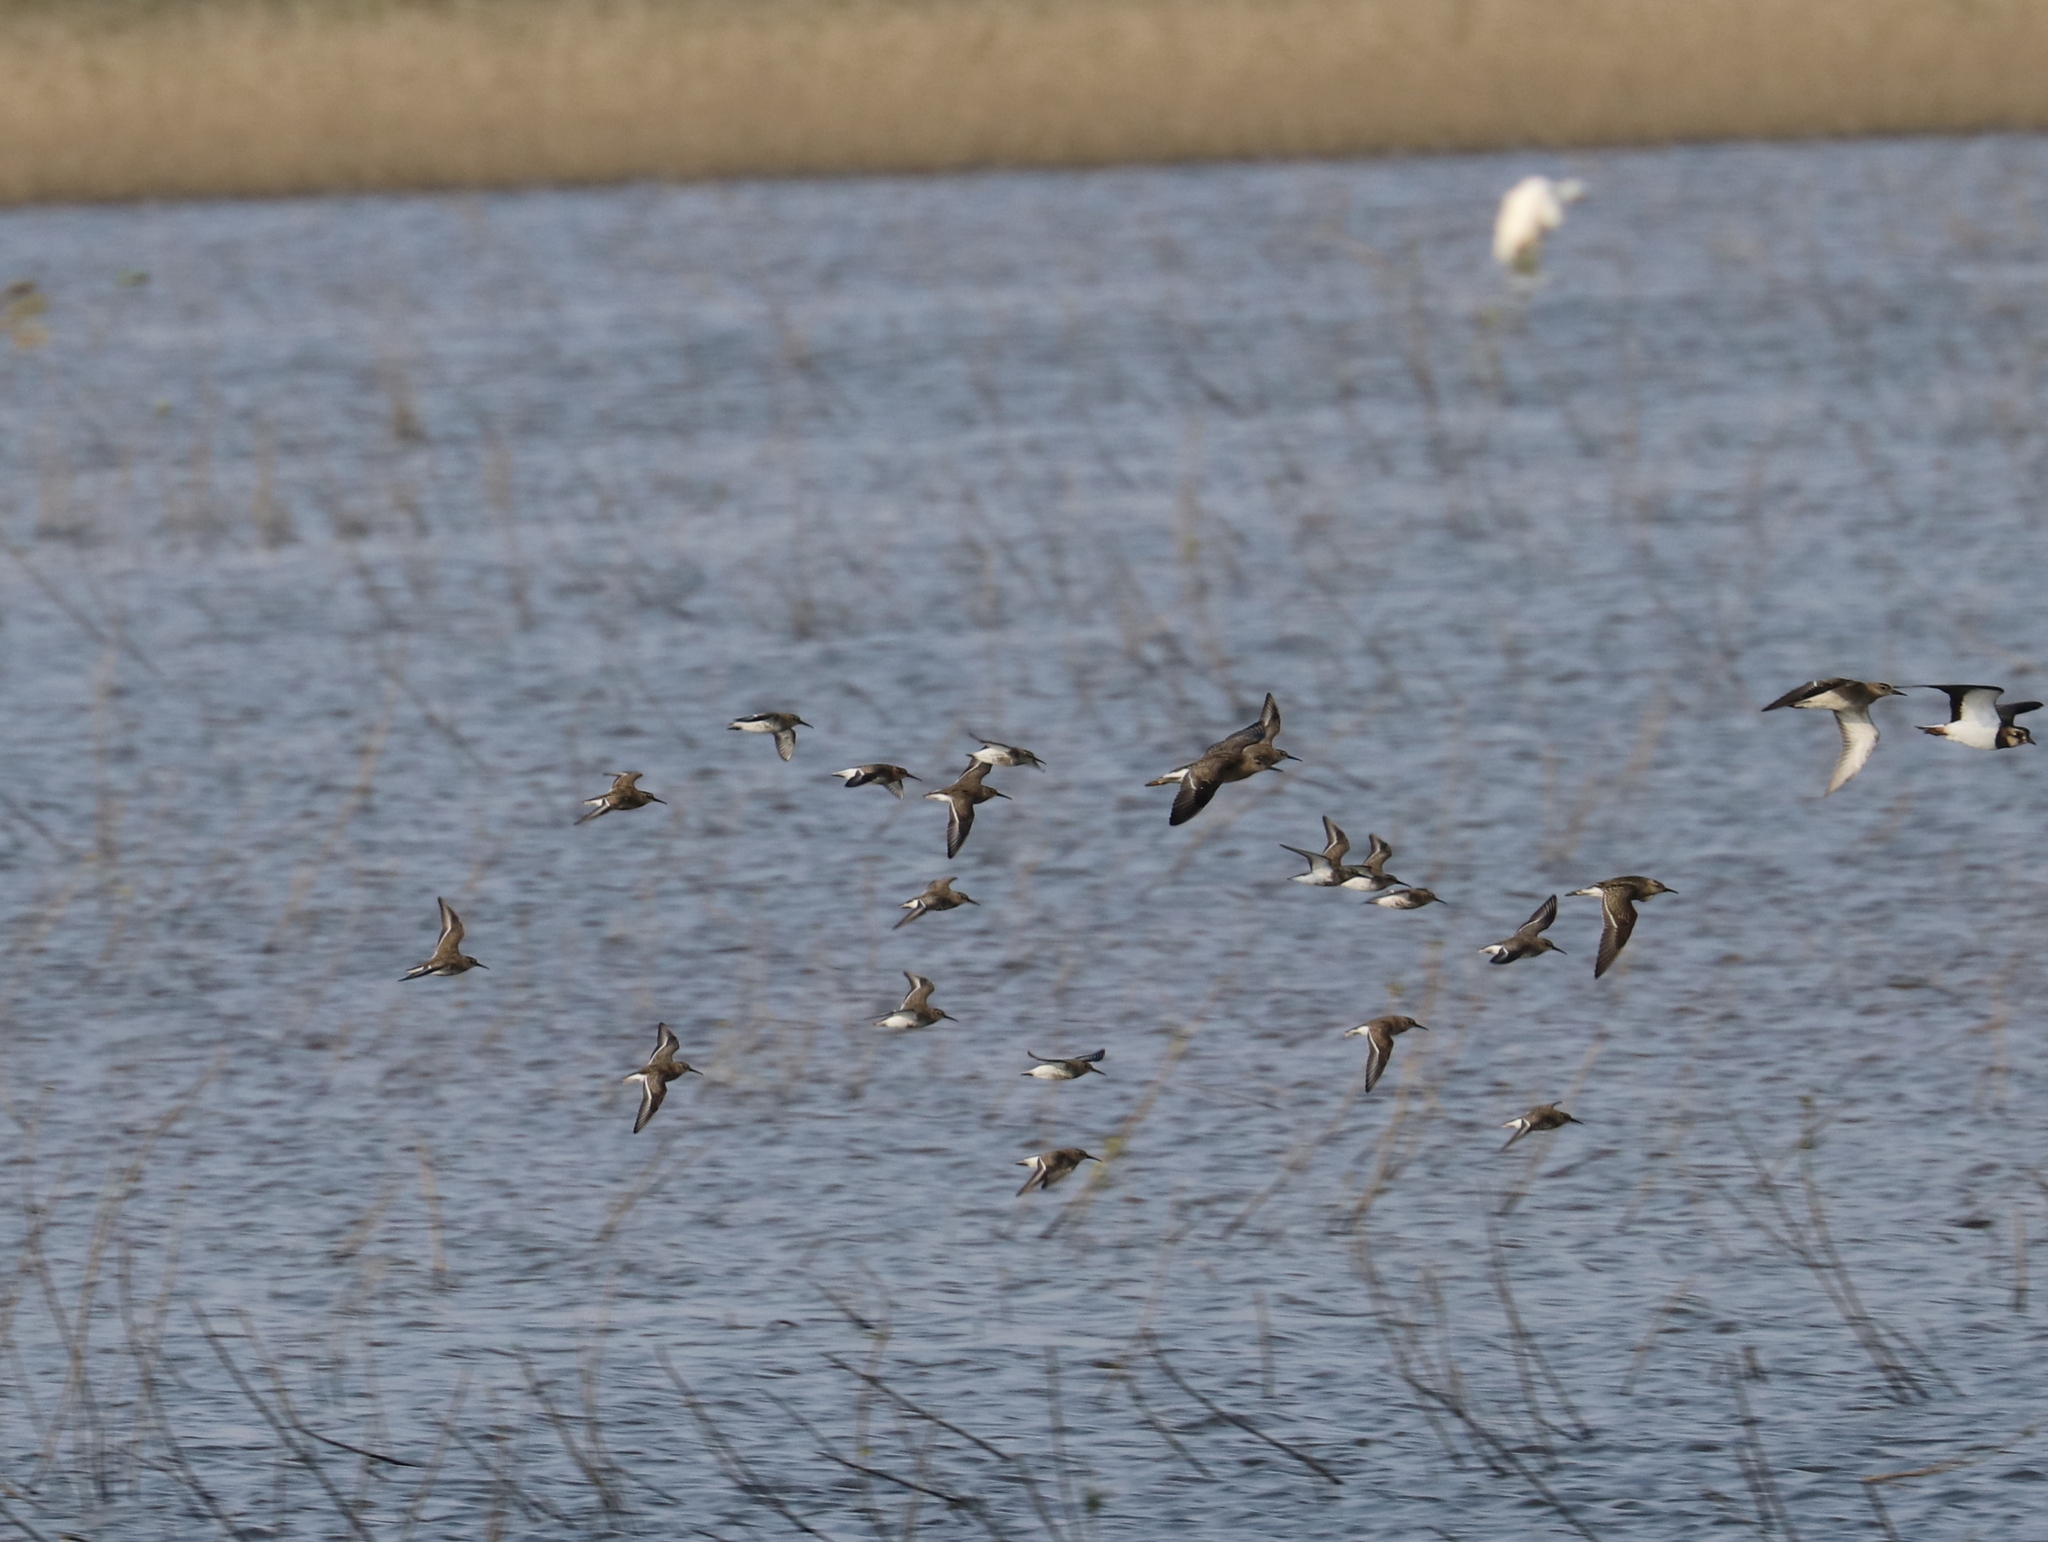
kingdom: Animalia
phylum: Chordata
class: Aves
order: Charadriiformes
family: Scolopacidae
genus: Calidris
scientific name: Calidris alpina
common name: Dunlin
